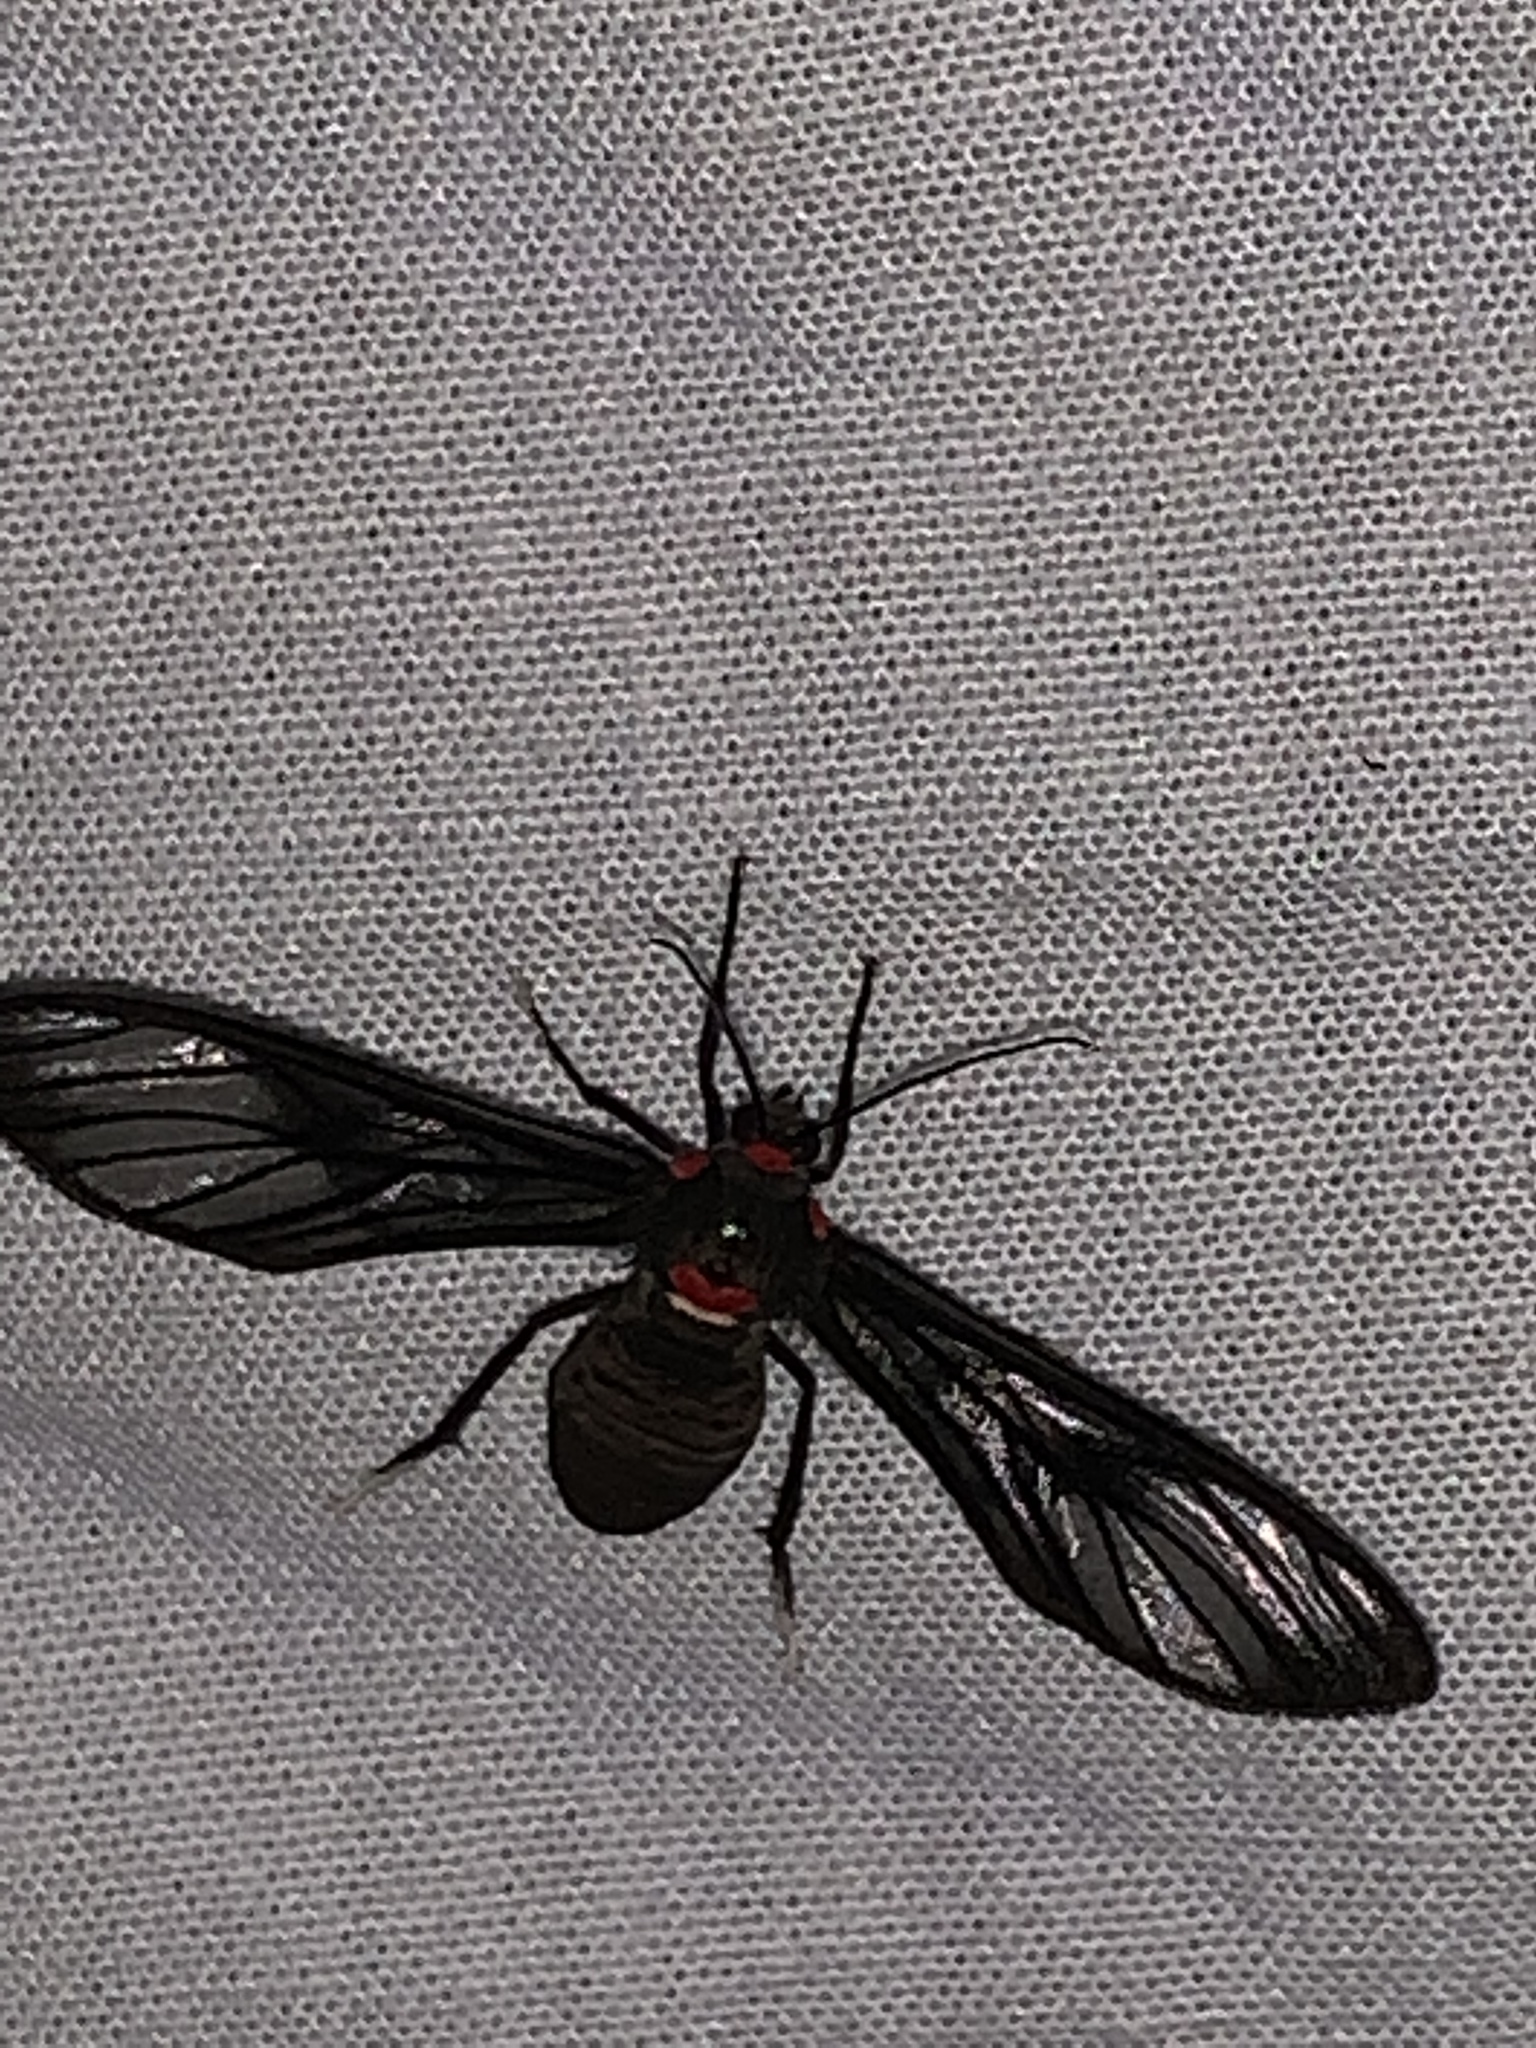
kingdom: Animalia
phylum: Arthropoda
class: Insecta
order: Lepidoptera
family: Erebidae
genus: Saurita
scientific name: Saurita phoenicosticta
